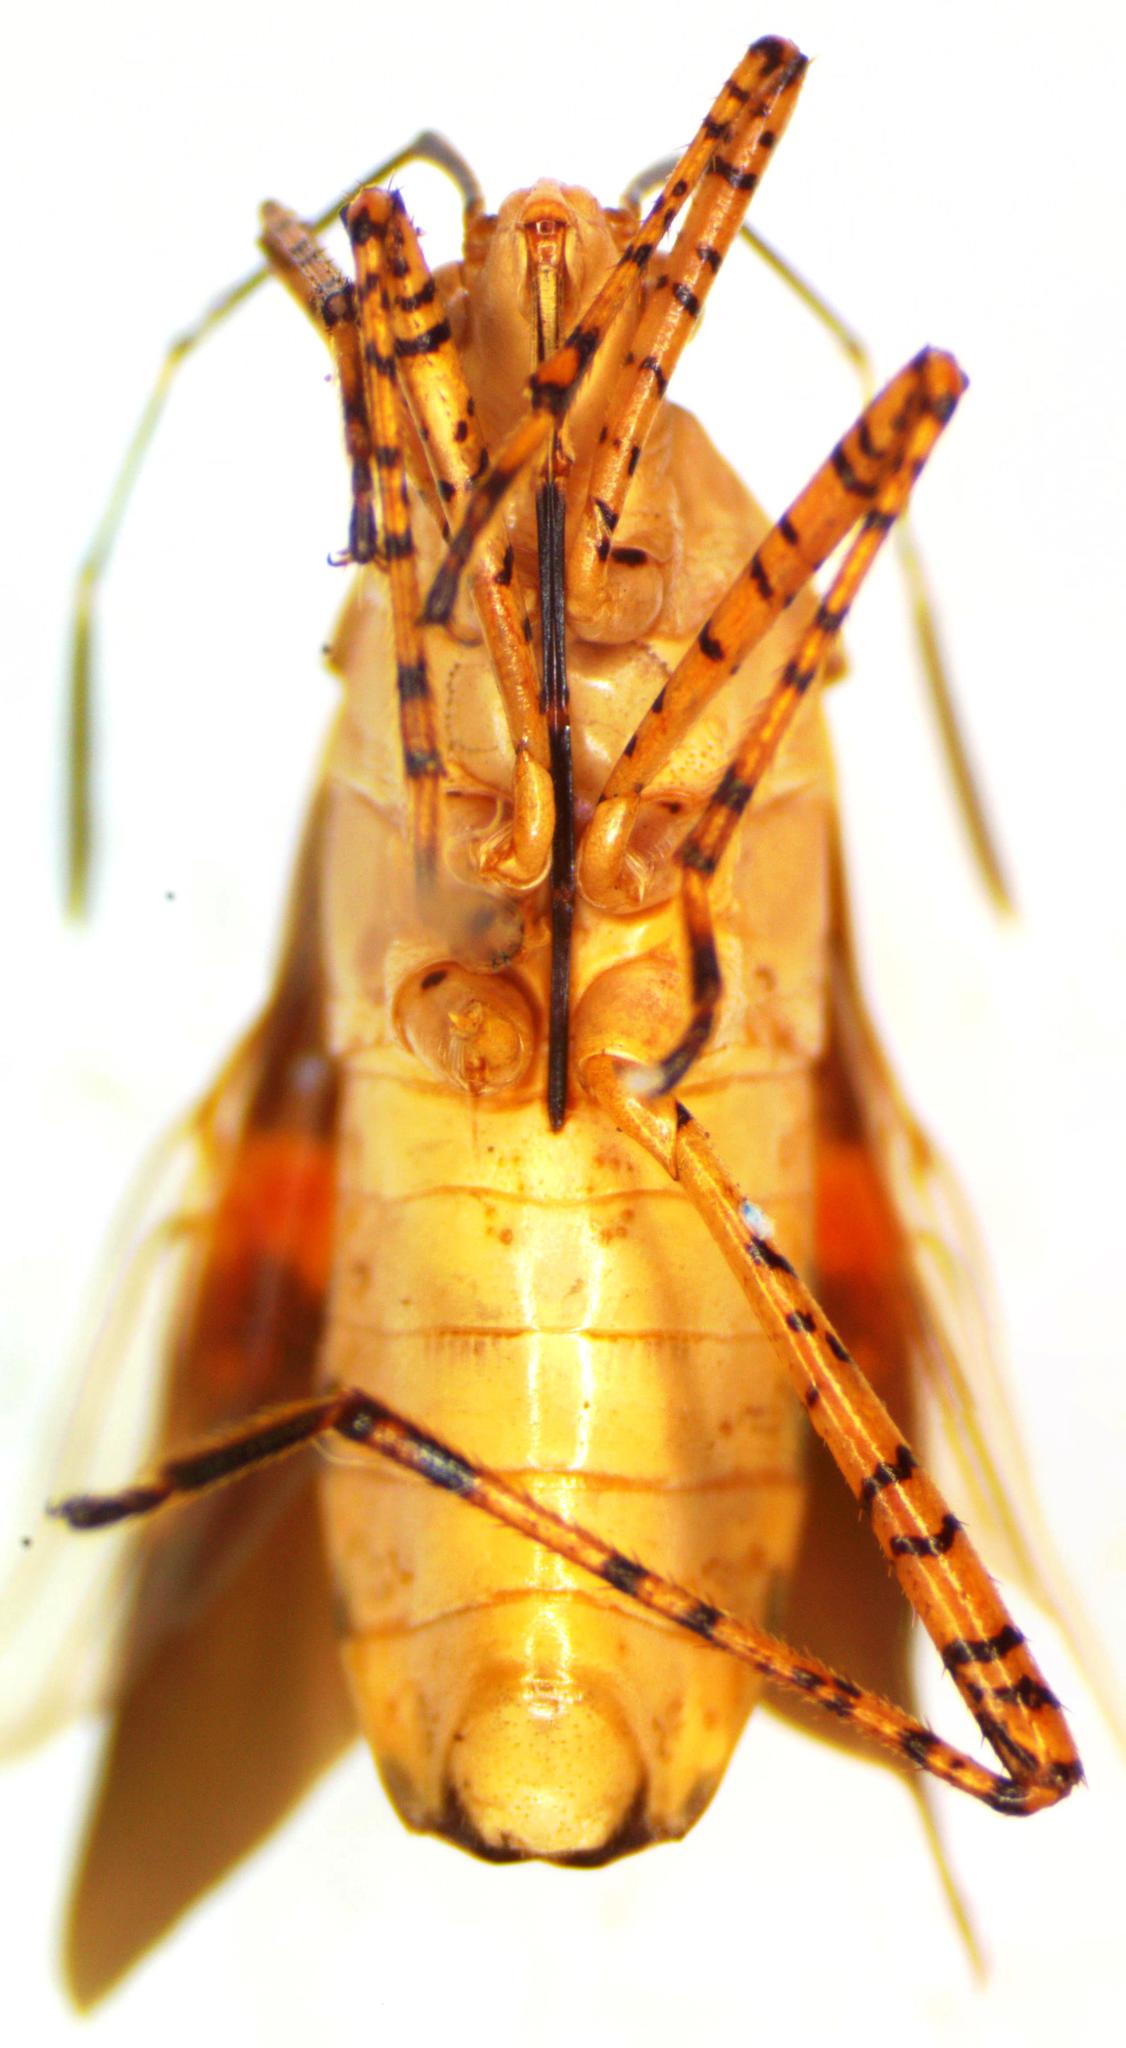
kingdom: Animalia
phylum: Arthropoda
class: Insecta
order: Hemiptera
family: Coreidae
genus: Hypselonotus
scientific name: Hypselonotus lineatus
